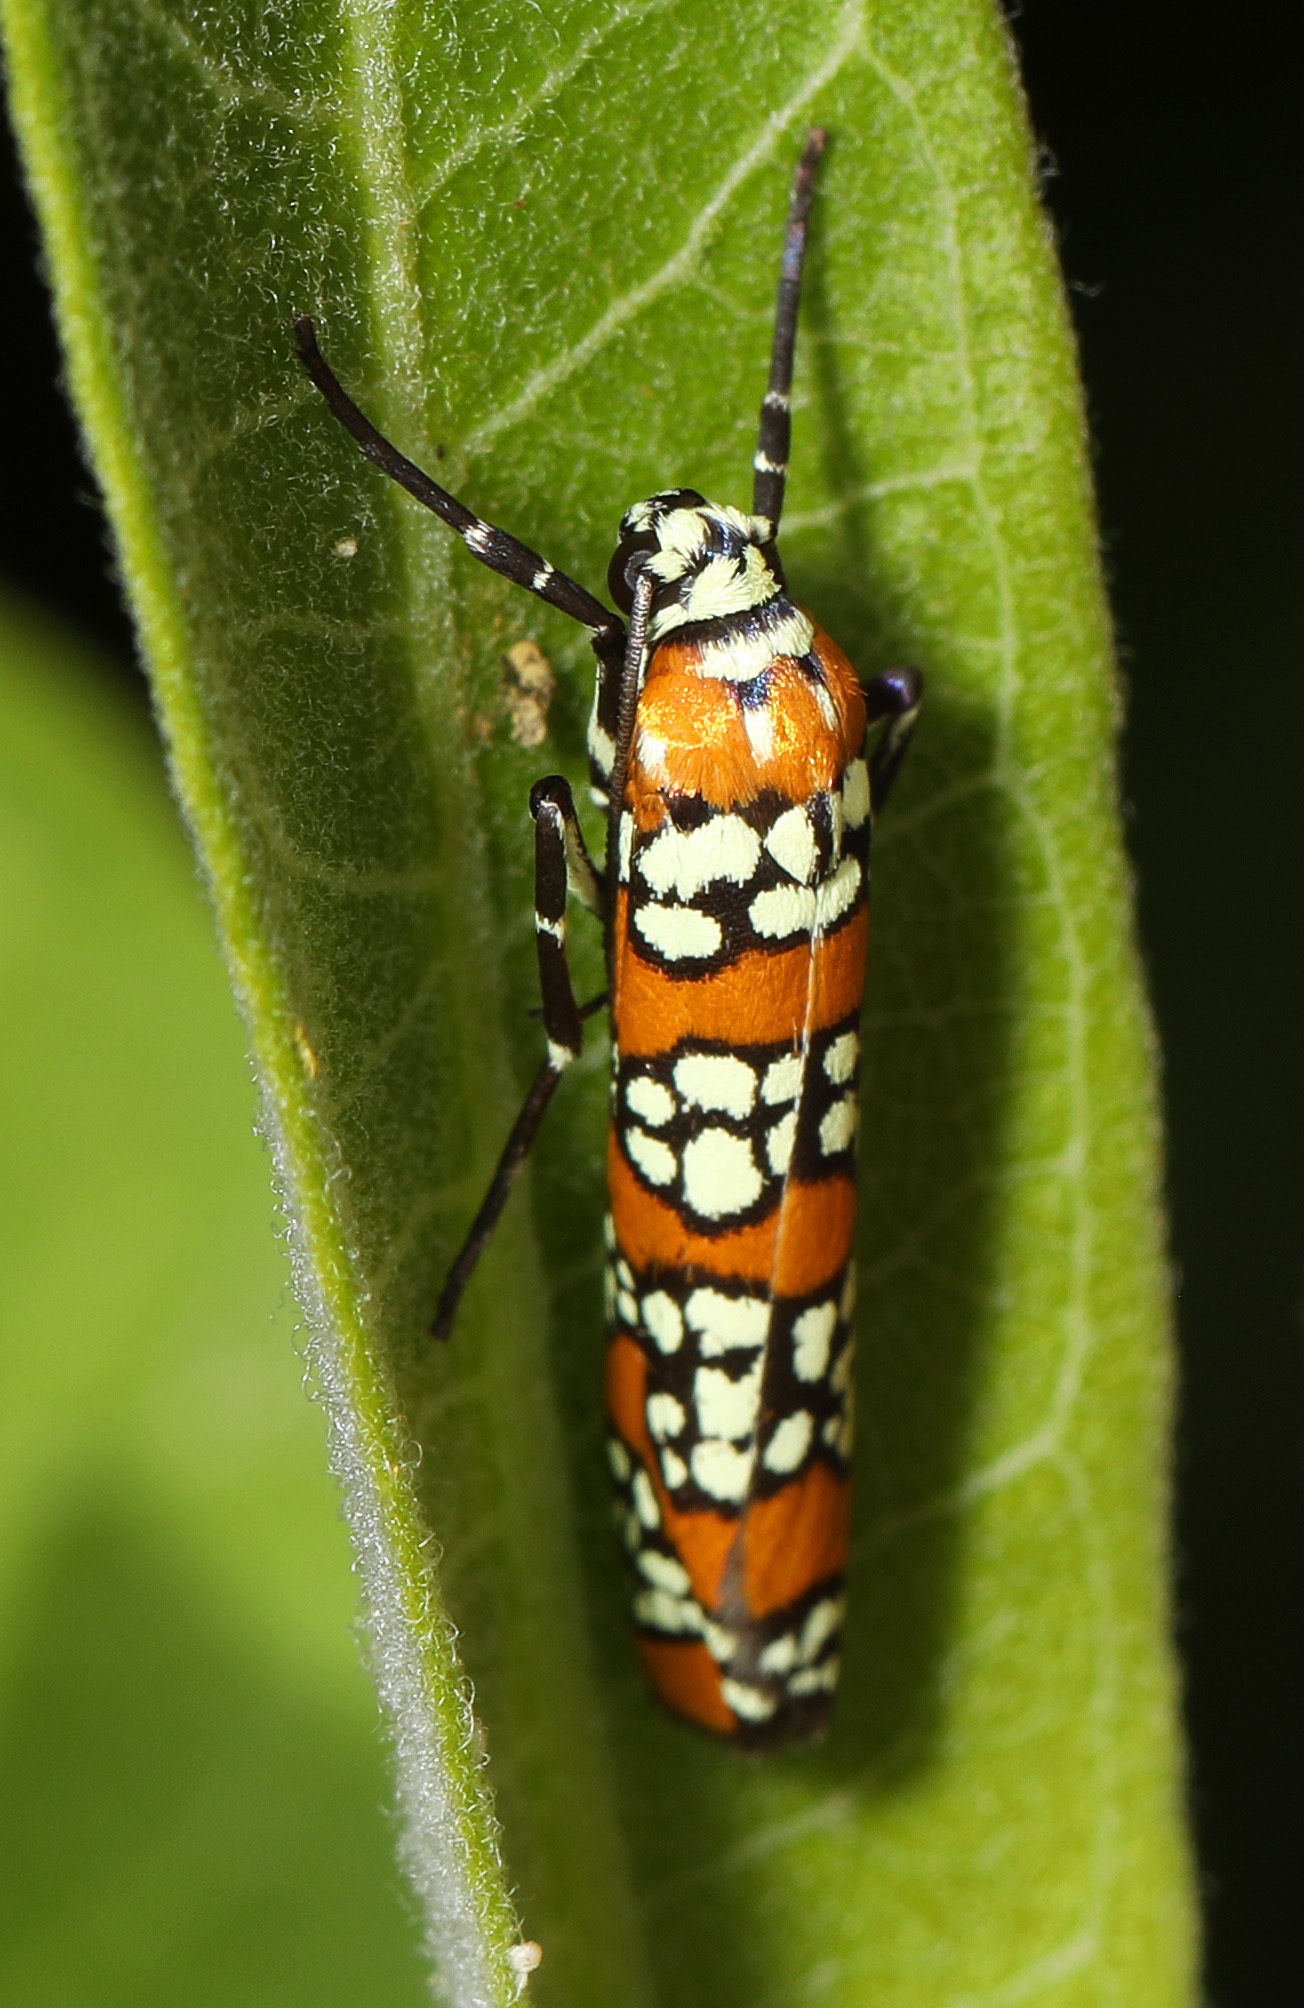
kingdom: Animalia
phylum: Arthropoda
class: Insecta
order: Lepidoptera
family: Attevidae
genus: Atteva
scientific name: Atteva punctella
